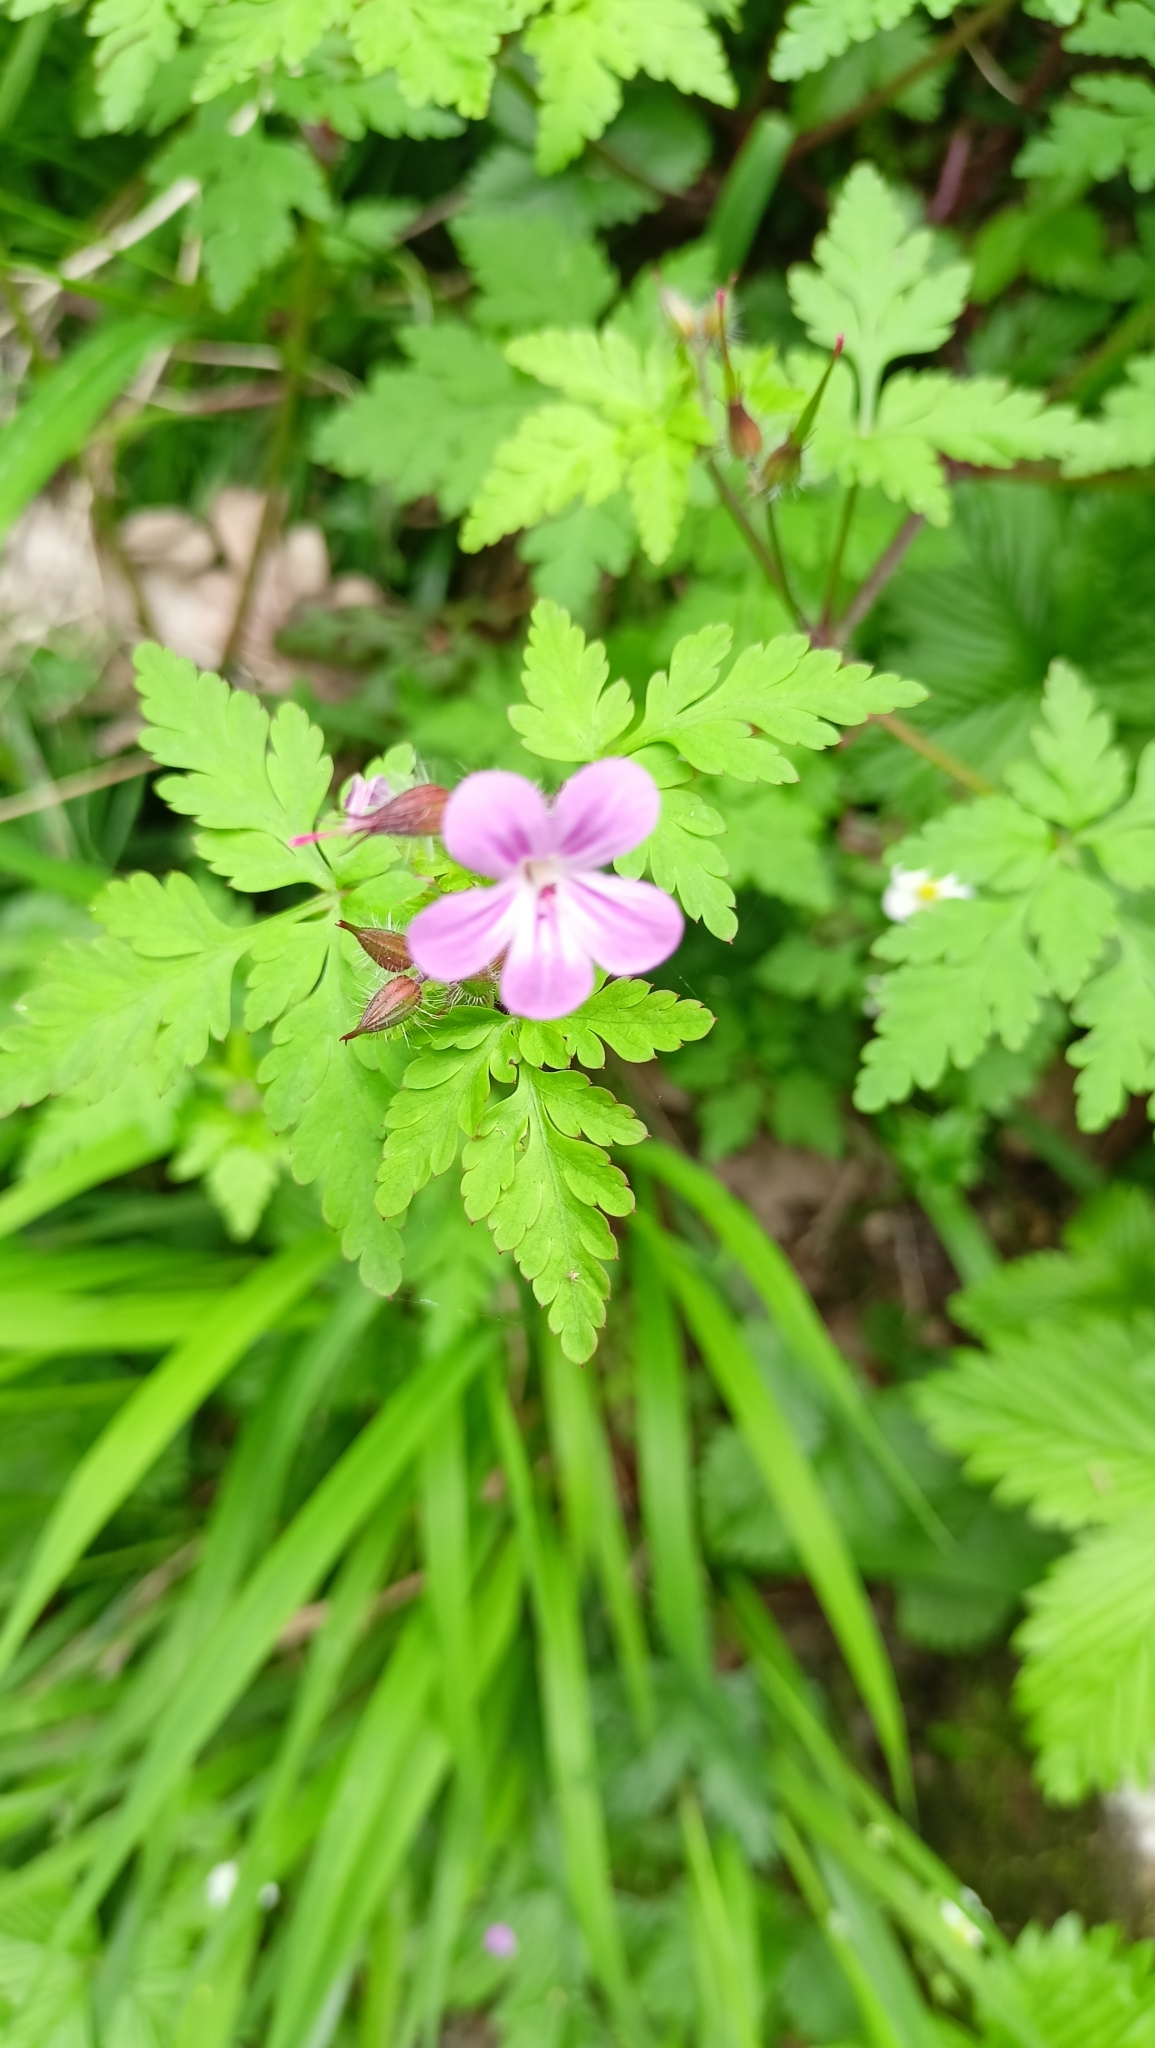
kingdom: Plantae
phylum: Tracheophyta
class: Magnoliopsida
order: Geraniales
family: Geraniaceae
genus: Geranium
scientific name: Geranium robertianum
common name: Herb-robert
